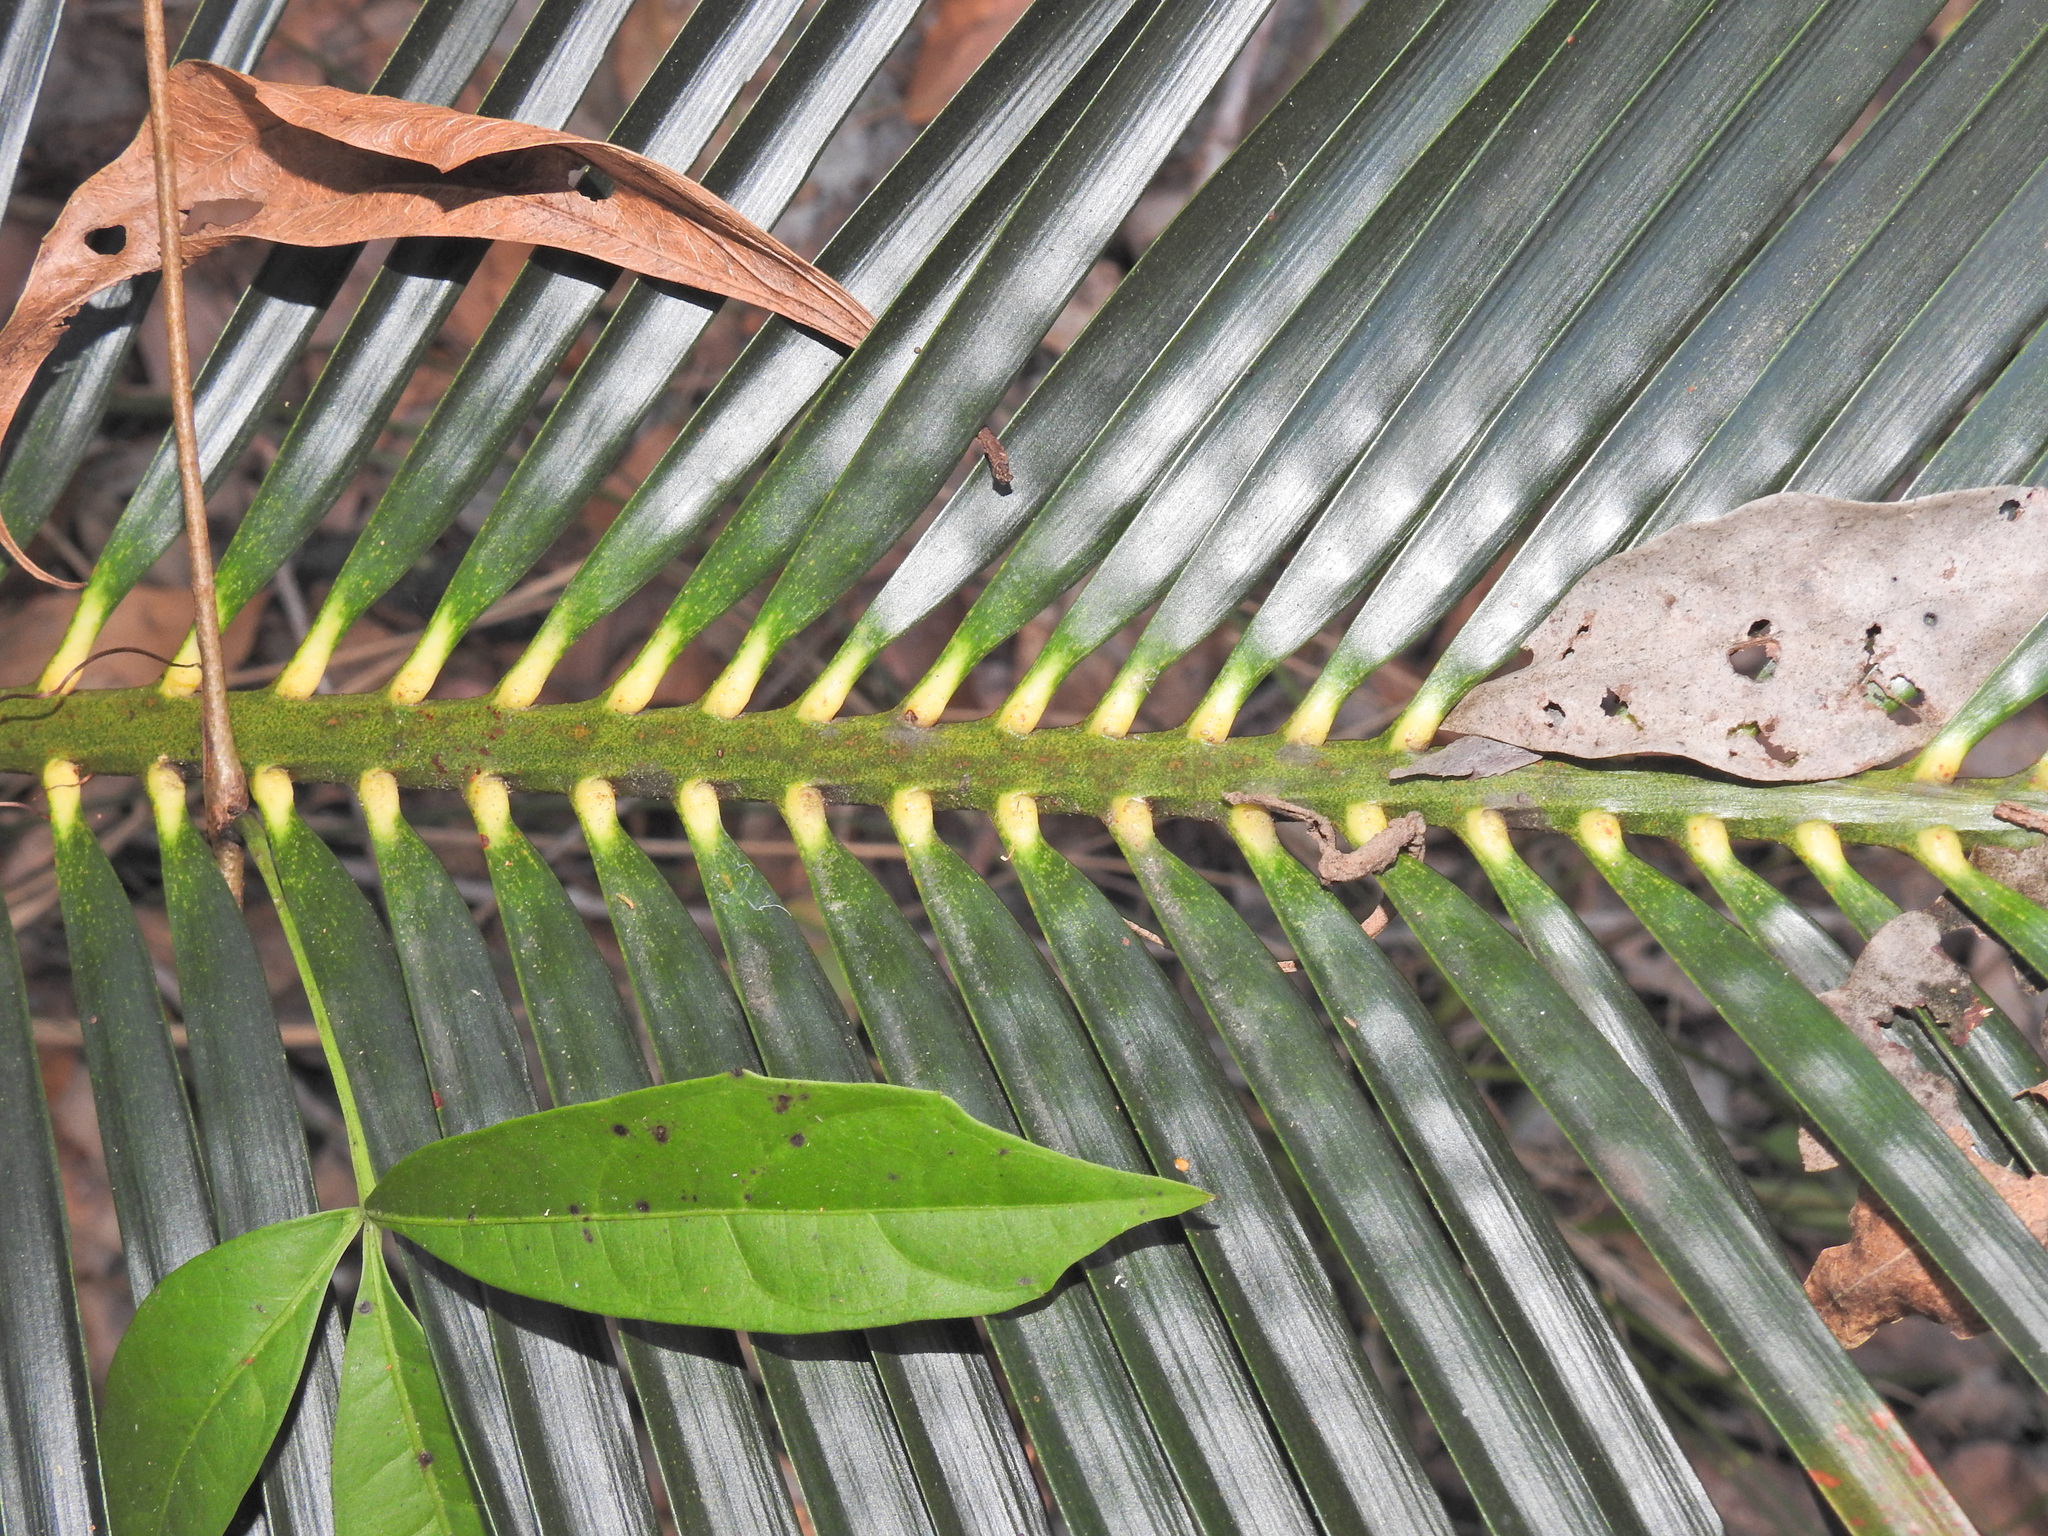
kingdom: Plantae
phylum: Tracheophyta
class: Cycadopsida
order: Cycadales
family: Zamiaceae
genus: Macrozamia
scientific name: Macrozamia douglasii
